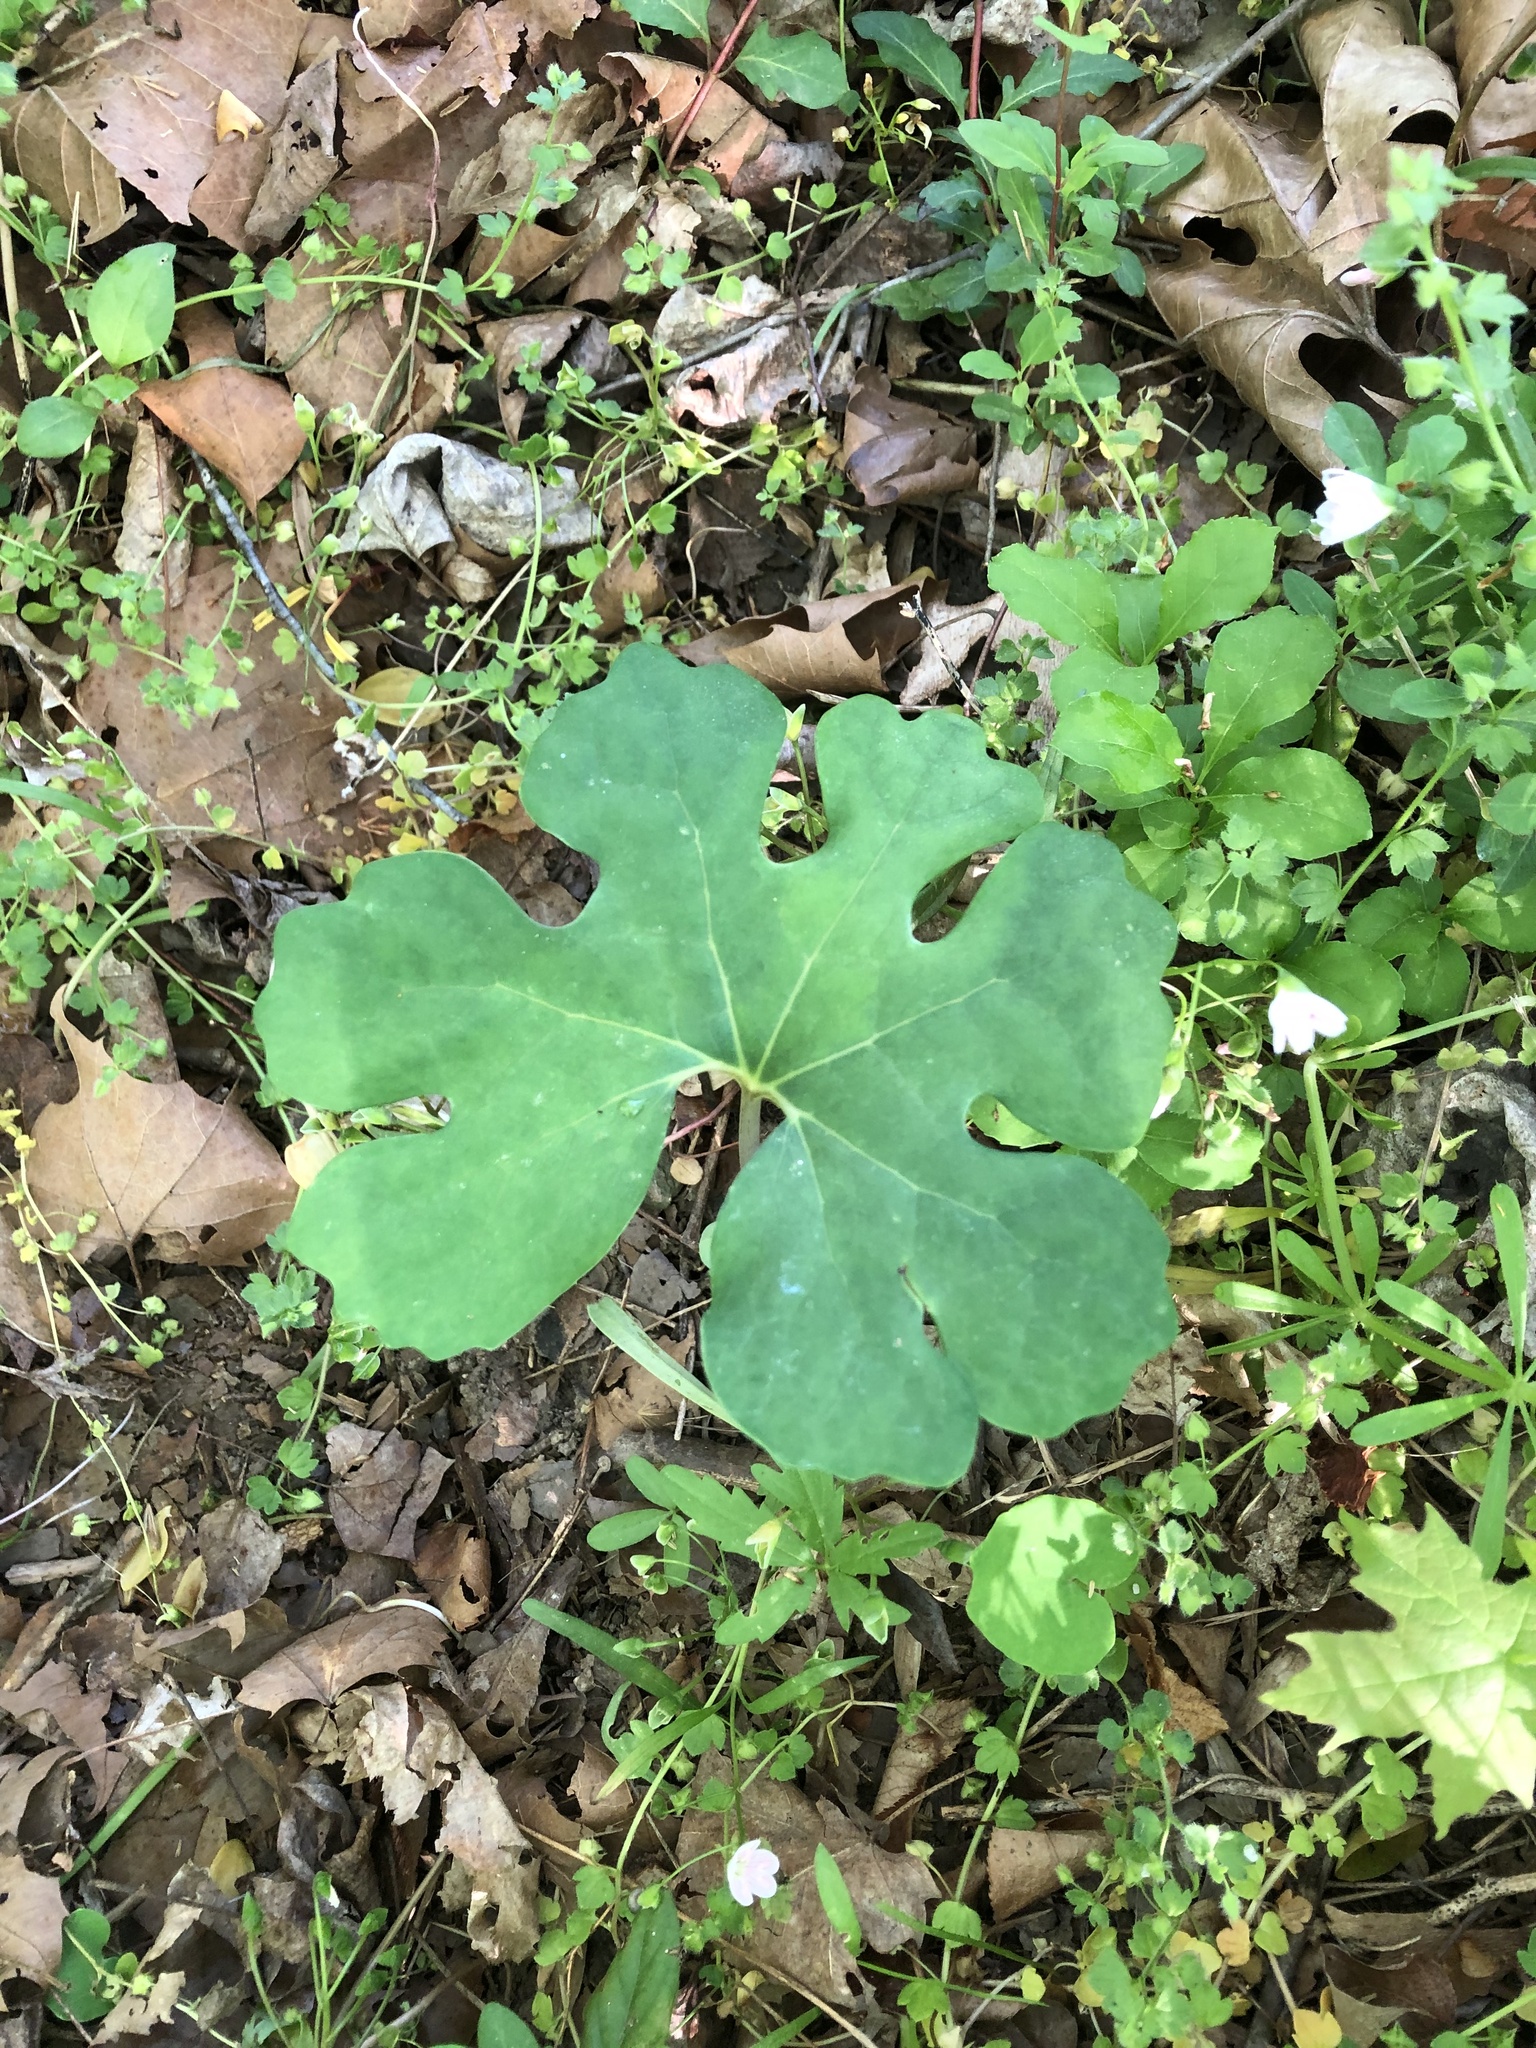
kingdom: Plantae
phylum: Tracheophyta
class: Magnoliopsida
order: Ranunculales
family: Papaveraceae
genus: Sanguinaria
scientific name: Sanguinaria canadensis
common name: Bloodroot
